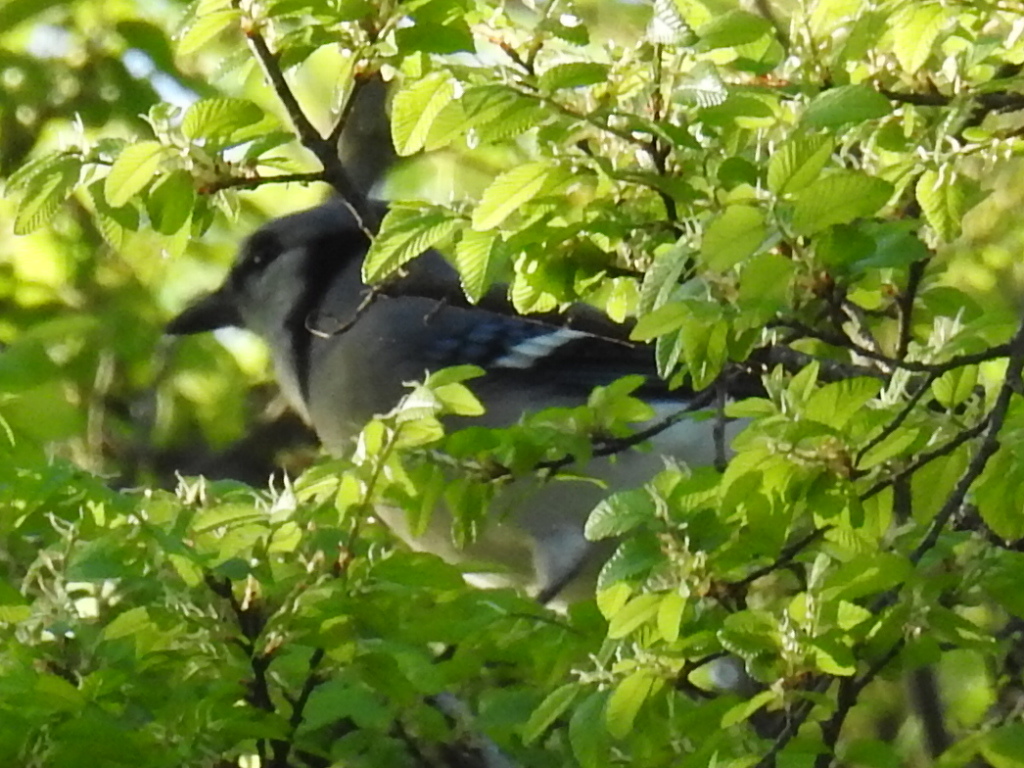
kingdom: Animalia
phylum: Chordata
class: Aves
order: Passeriformes
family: Corvidae
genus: Cyanocitta
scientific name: Cyanocitta cristata
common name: Blue jay
